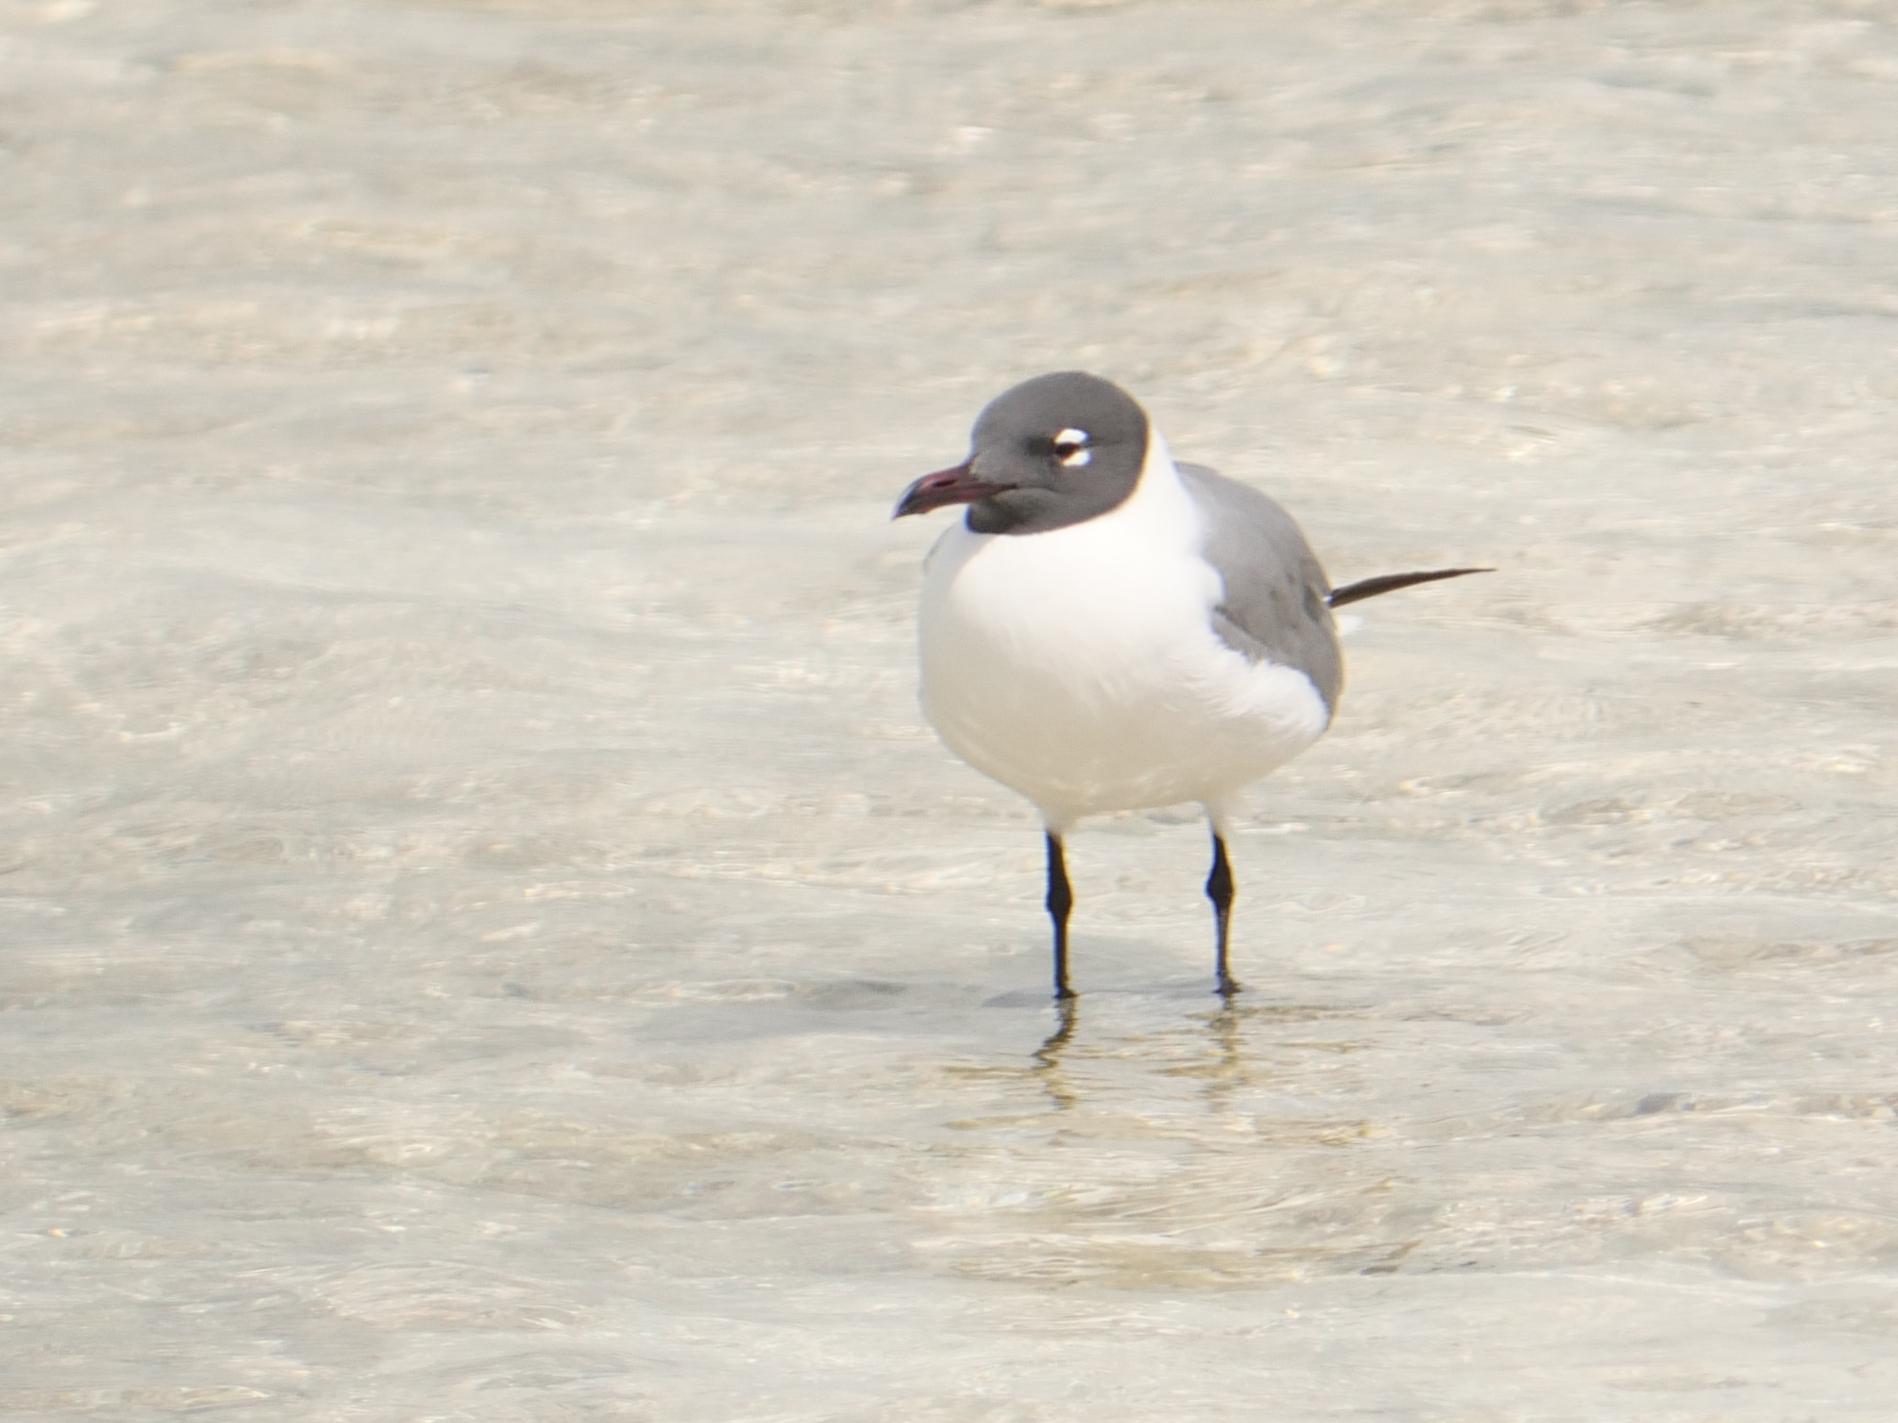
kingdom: Animalia
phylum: Chordata
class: Aves
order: Charadriiformes
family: Laridae
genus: Leucophaeus
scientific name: Leucophaeus atricilla
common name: Laughing gull
